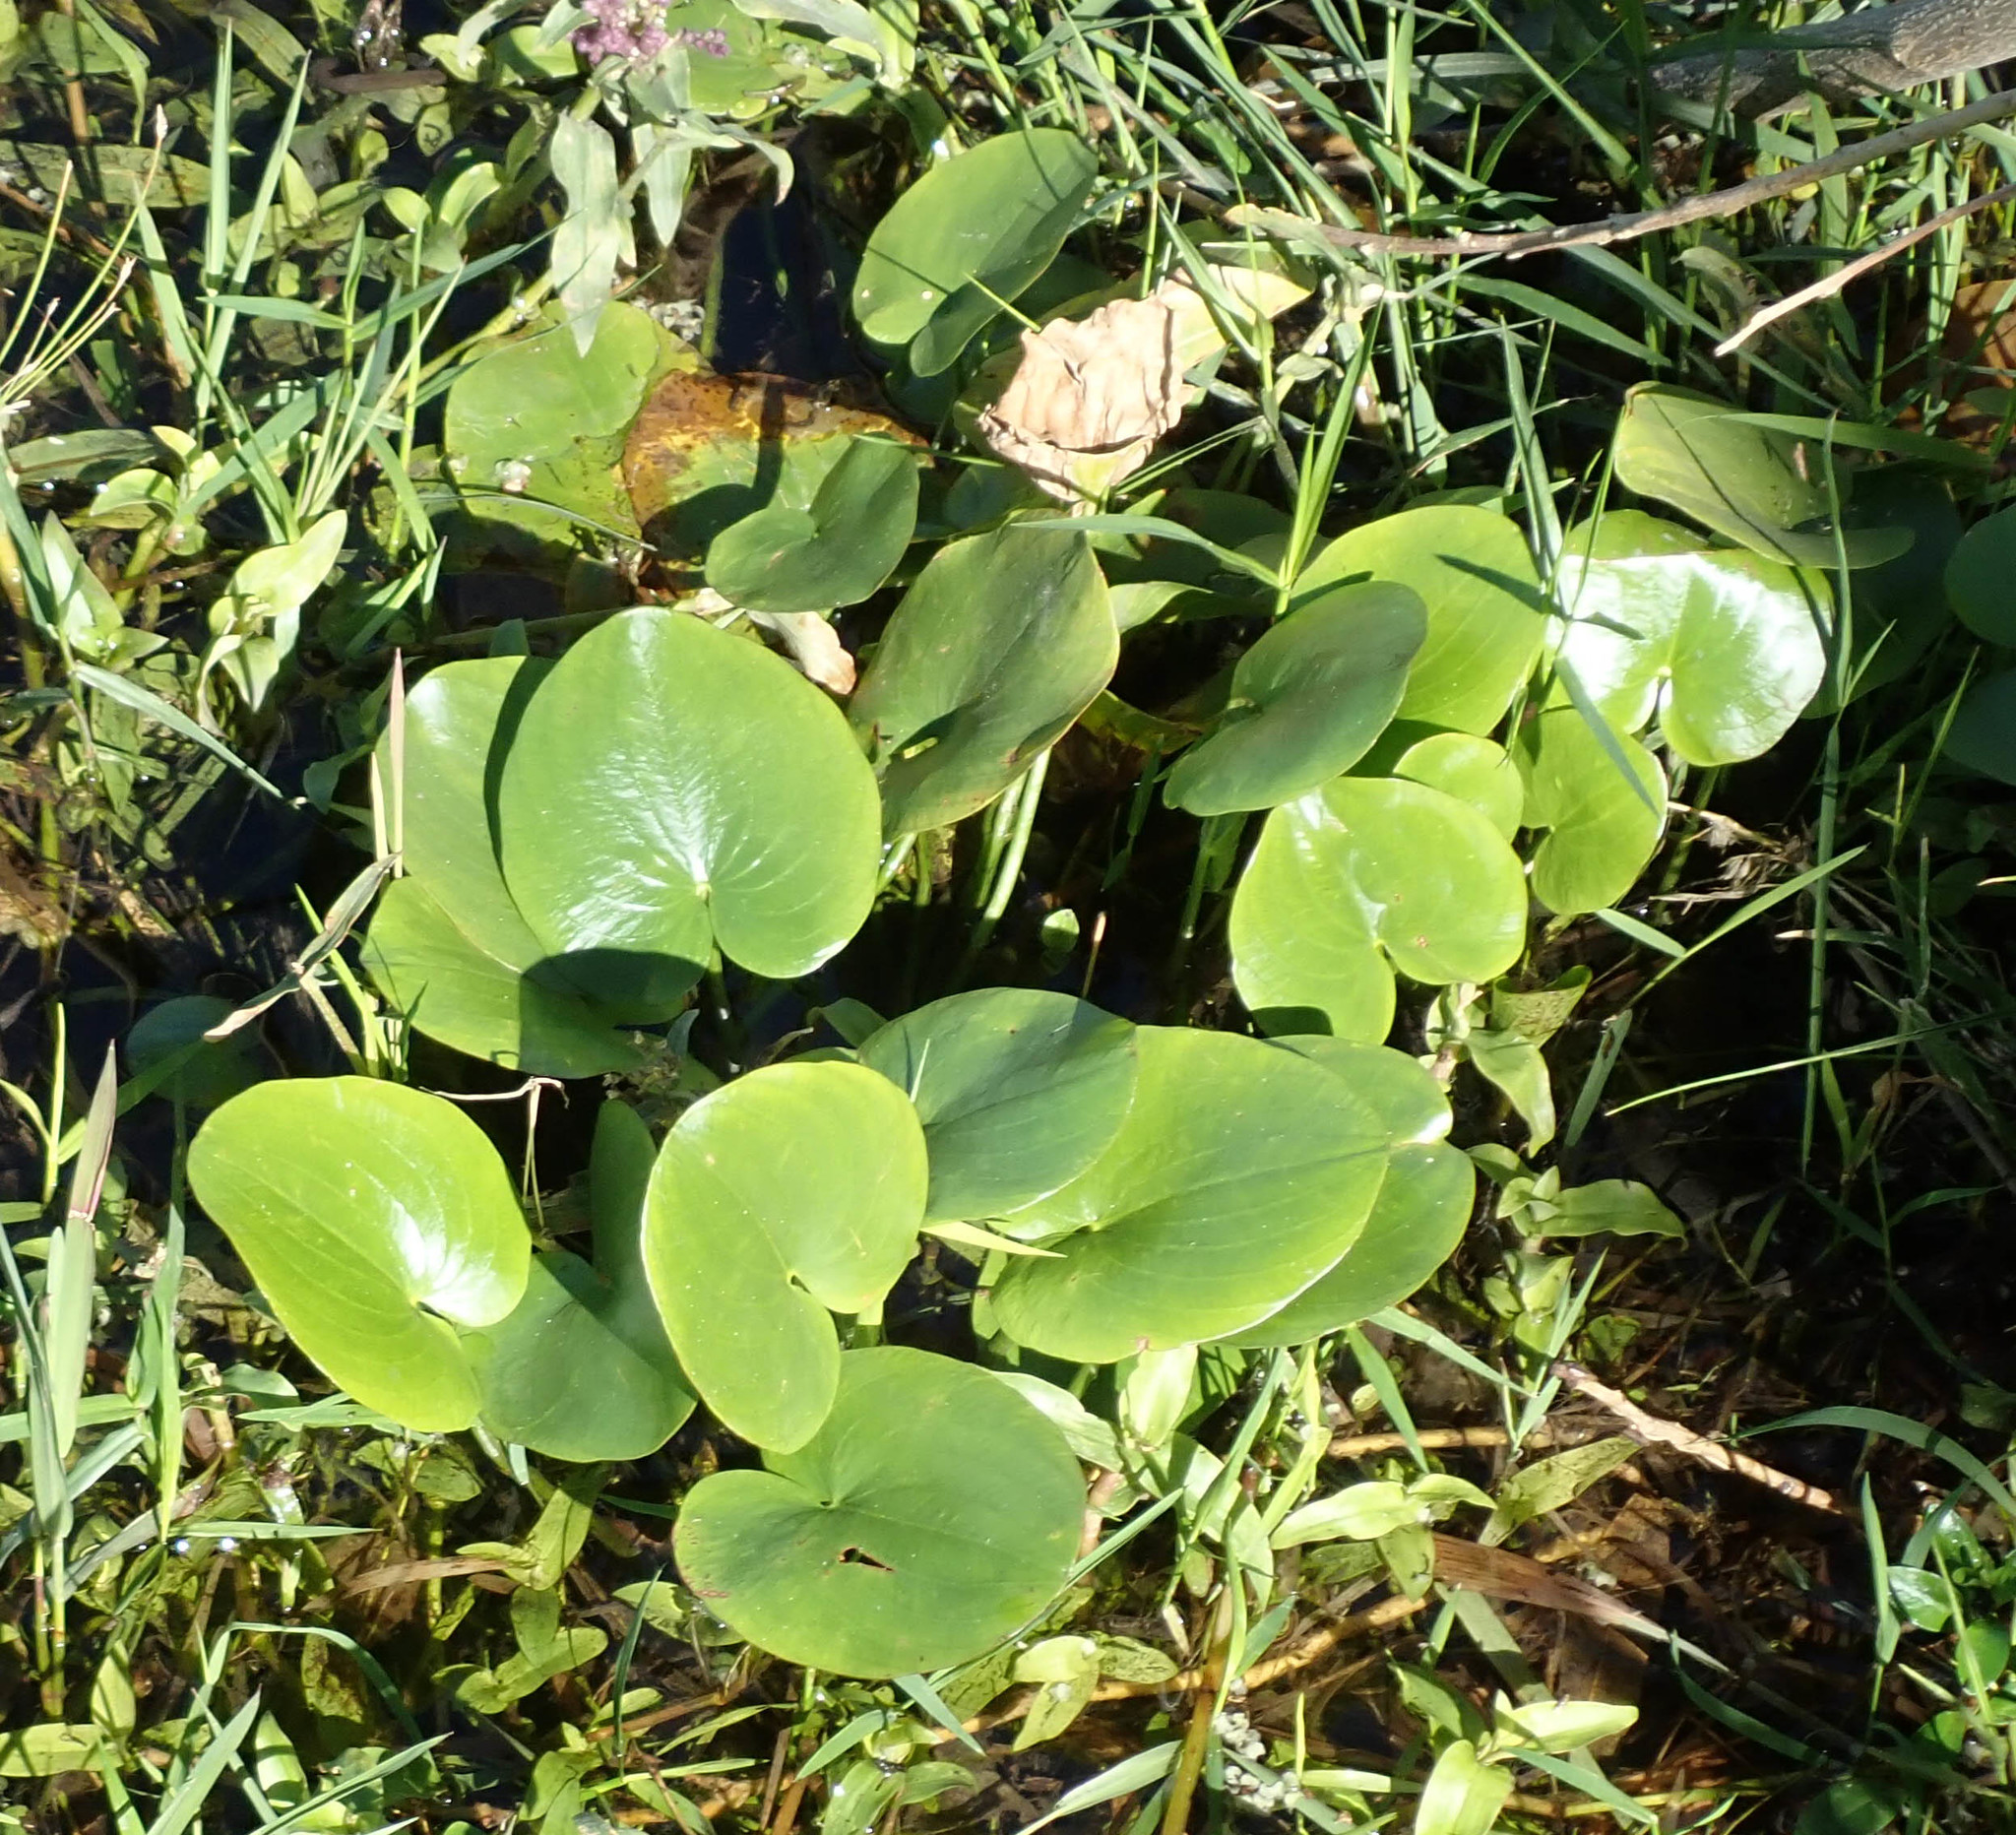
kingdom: Plantae
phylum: Tracheophyta
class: Liliopsida
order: Alismatales
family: Alismataceae
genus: Caldesia
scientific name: Caldesia parnassifolia
